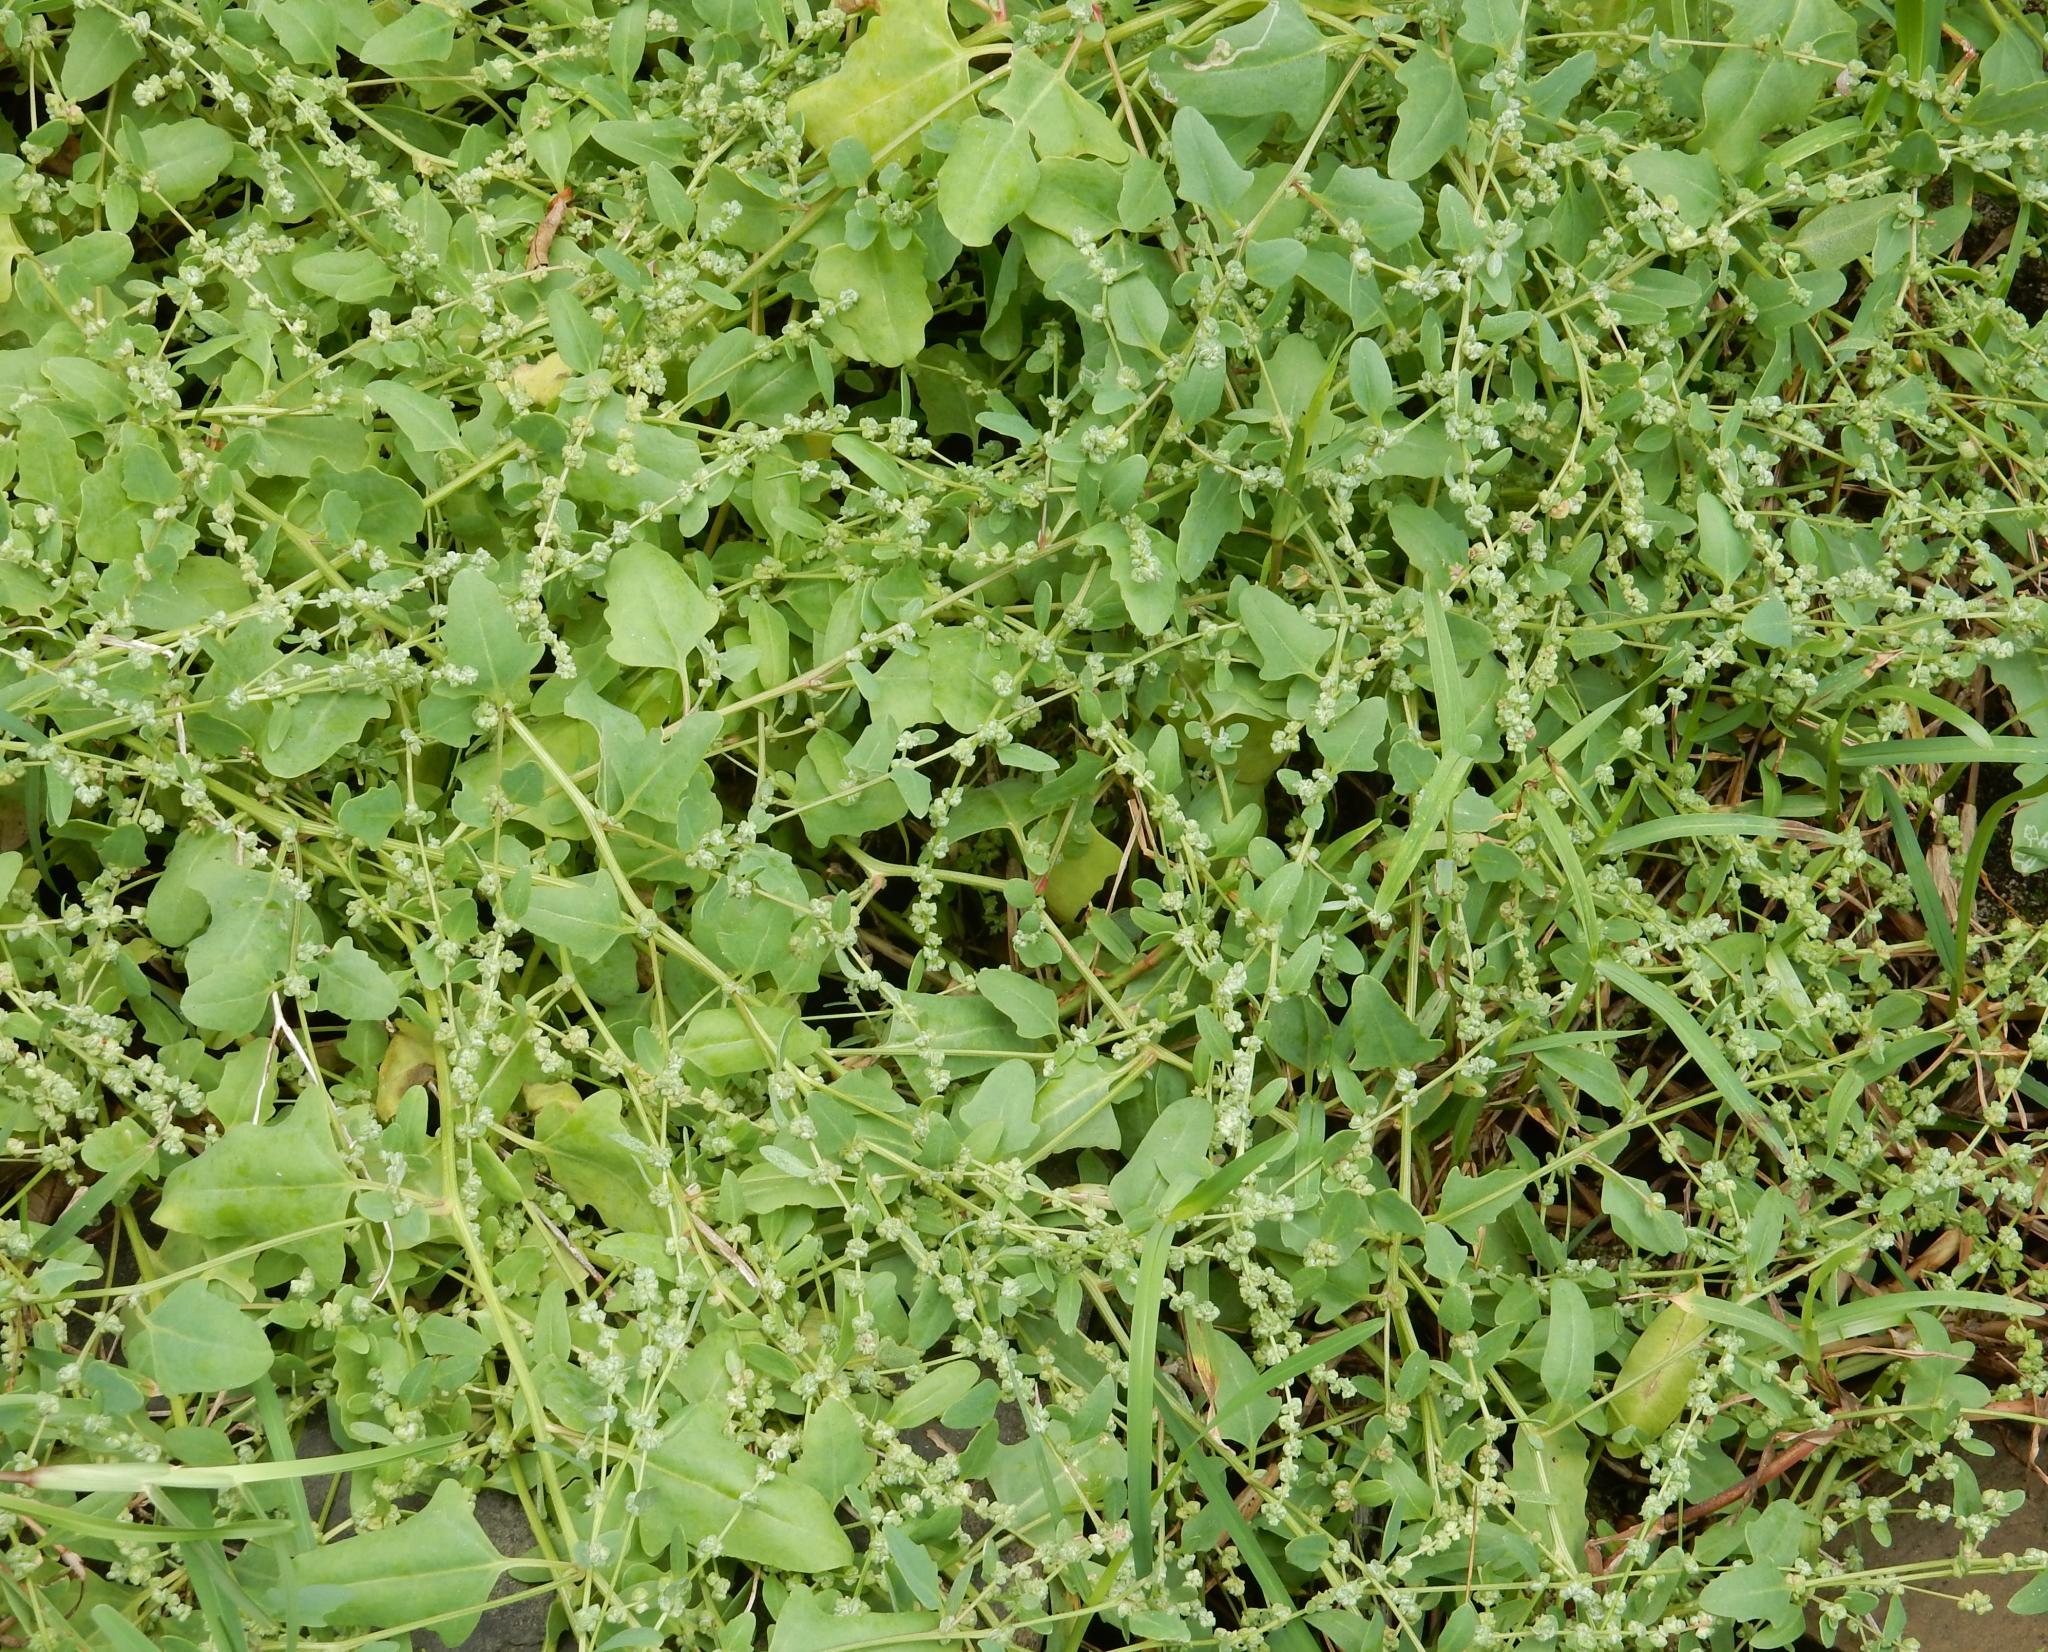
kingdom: Plantae
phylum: Tracheophyta
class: Magnoliopsida
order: Caryophyllales
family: Amaranthaceae
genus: Atriplex
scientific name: Atriplex patula
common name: Common orache
